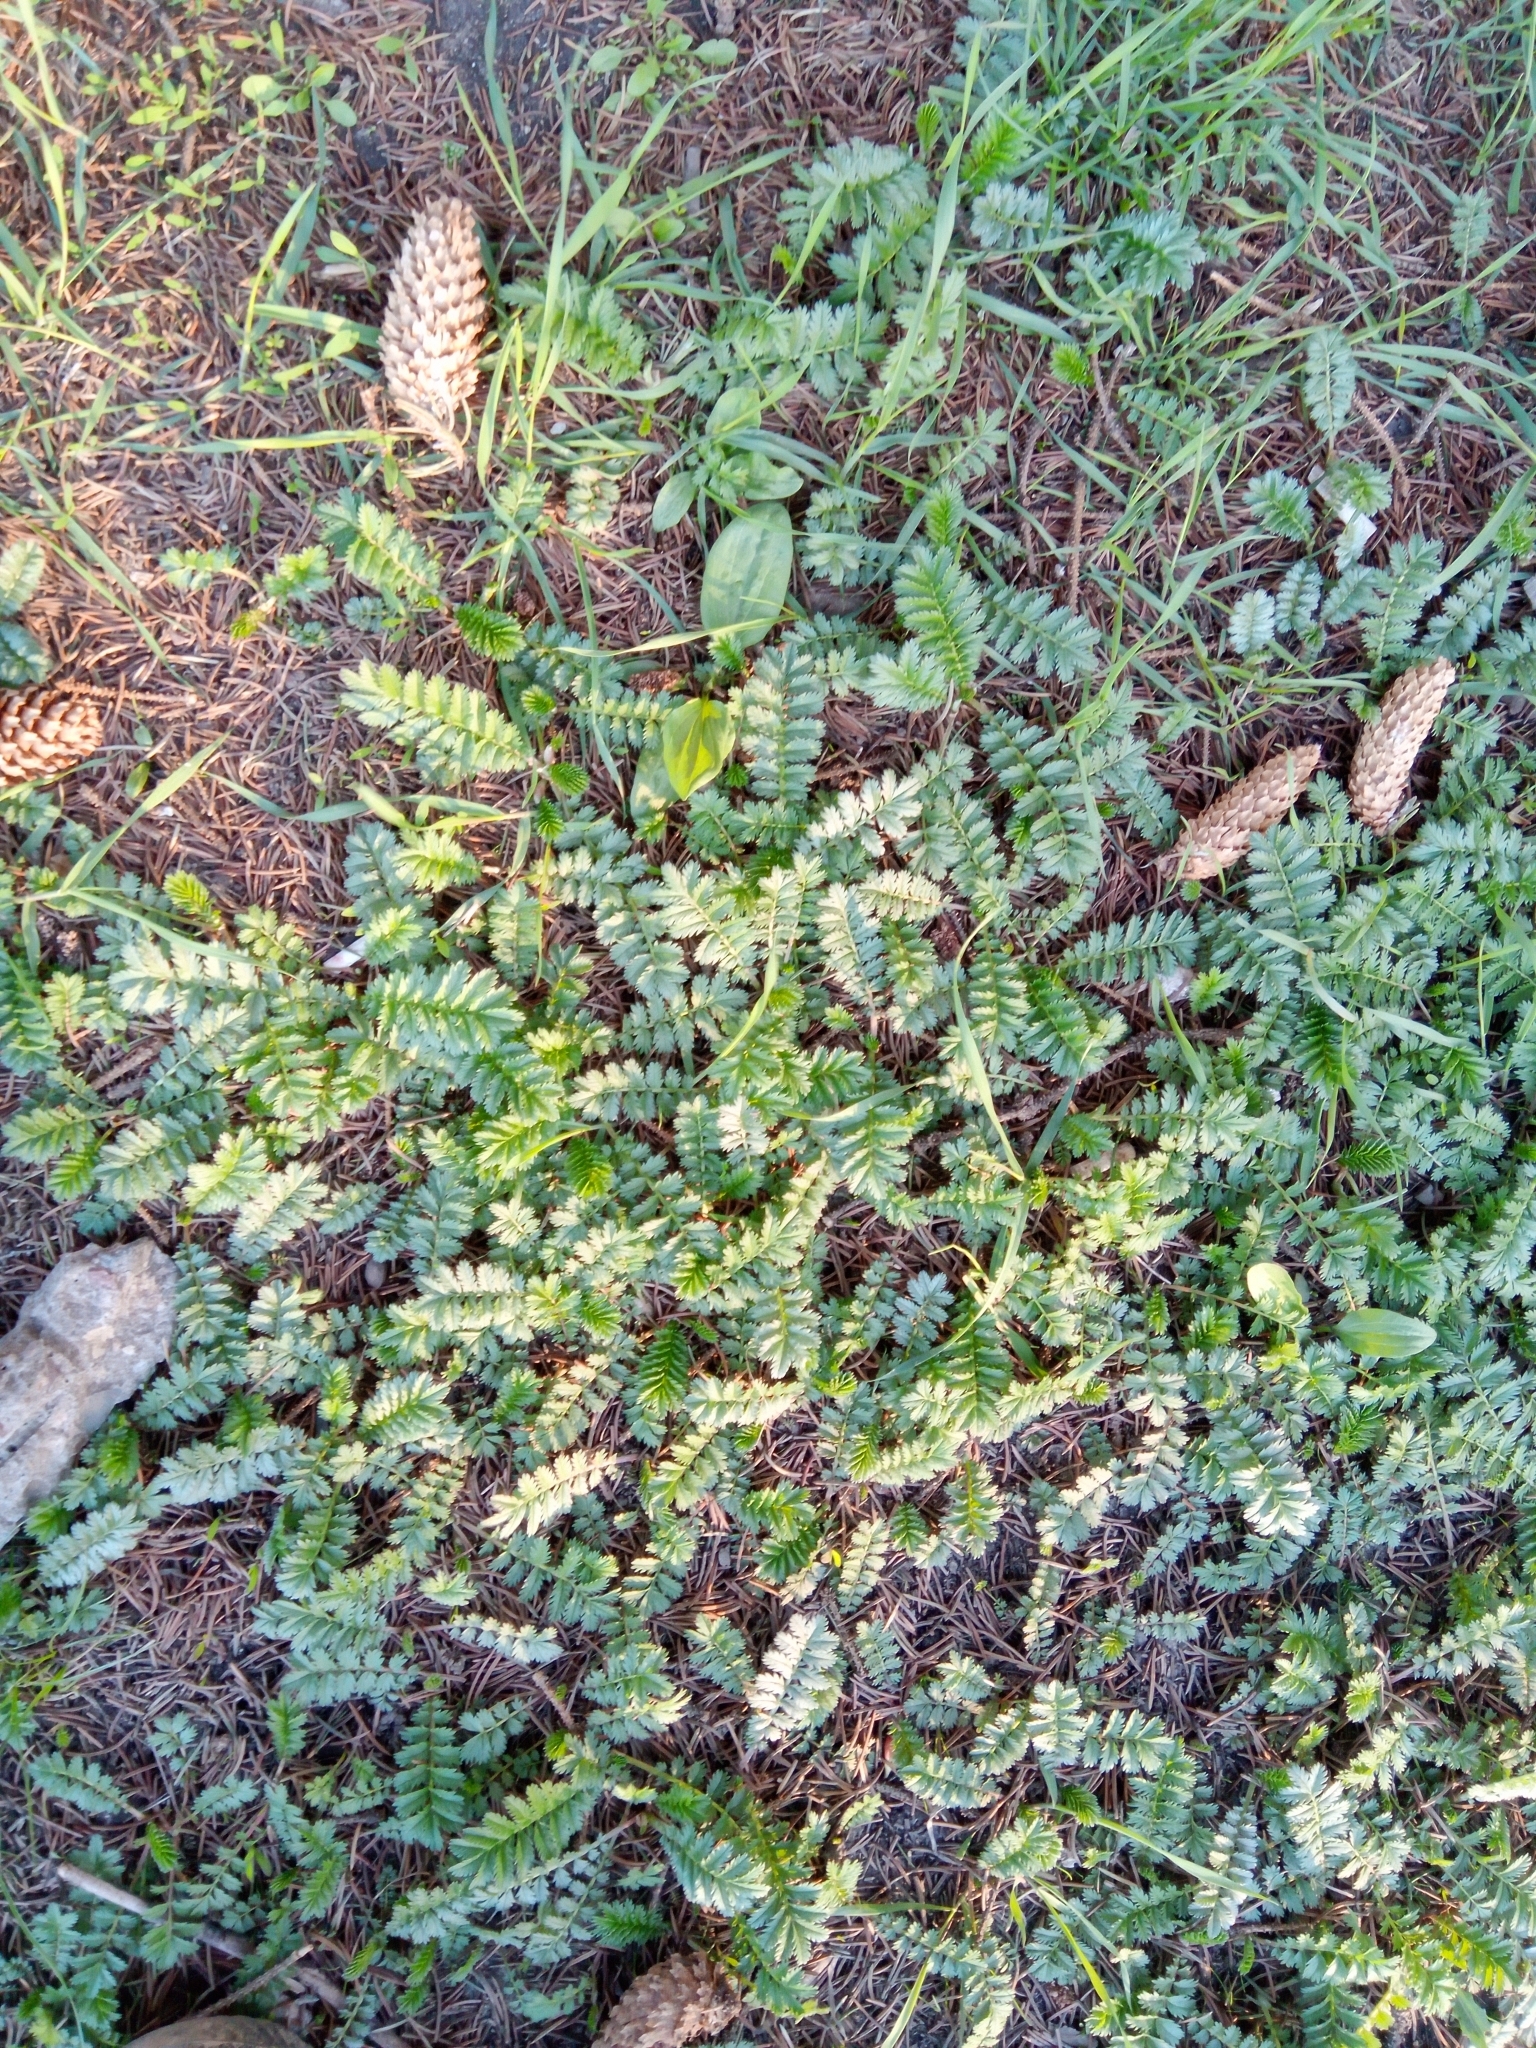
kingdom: Plantae
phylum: Tracheophyta
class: Magnoliopsida
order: Rosales
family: Rosaceae
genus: Argentina
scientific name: Argentina anserina
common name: Common silverweed
